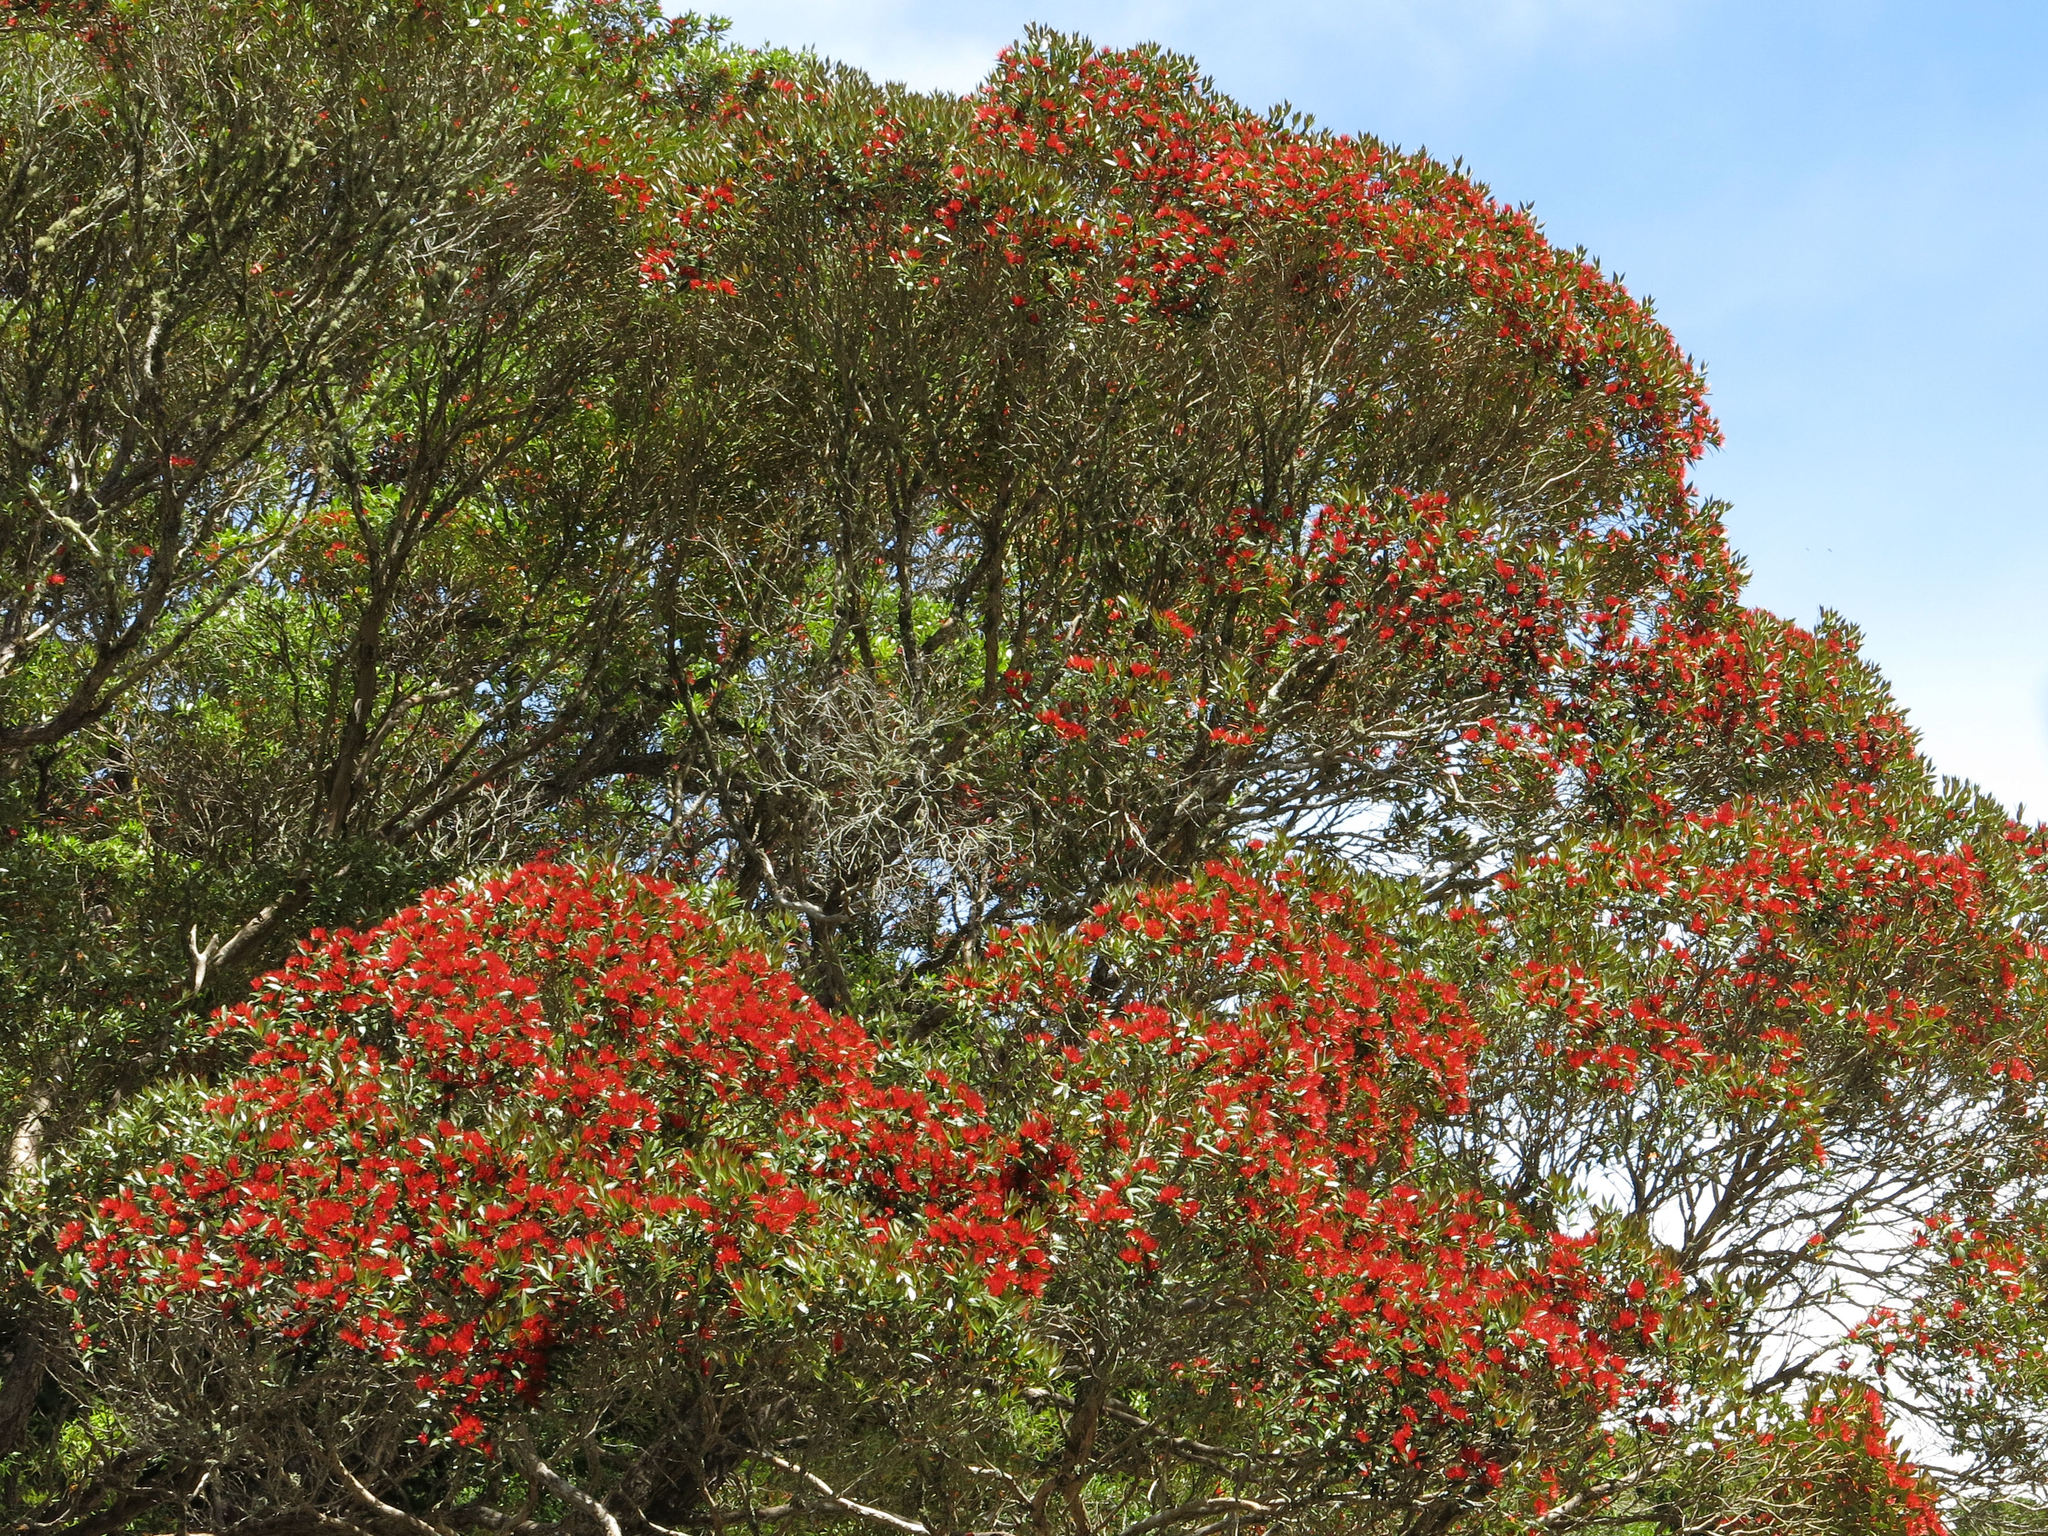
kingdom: Plantae
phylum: Tracheophyta
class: Magnoliopsida
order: Myrtales
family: Myrtaceae
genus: Metrosideros
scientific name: Metrosideros umbellata
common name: Southern rata
